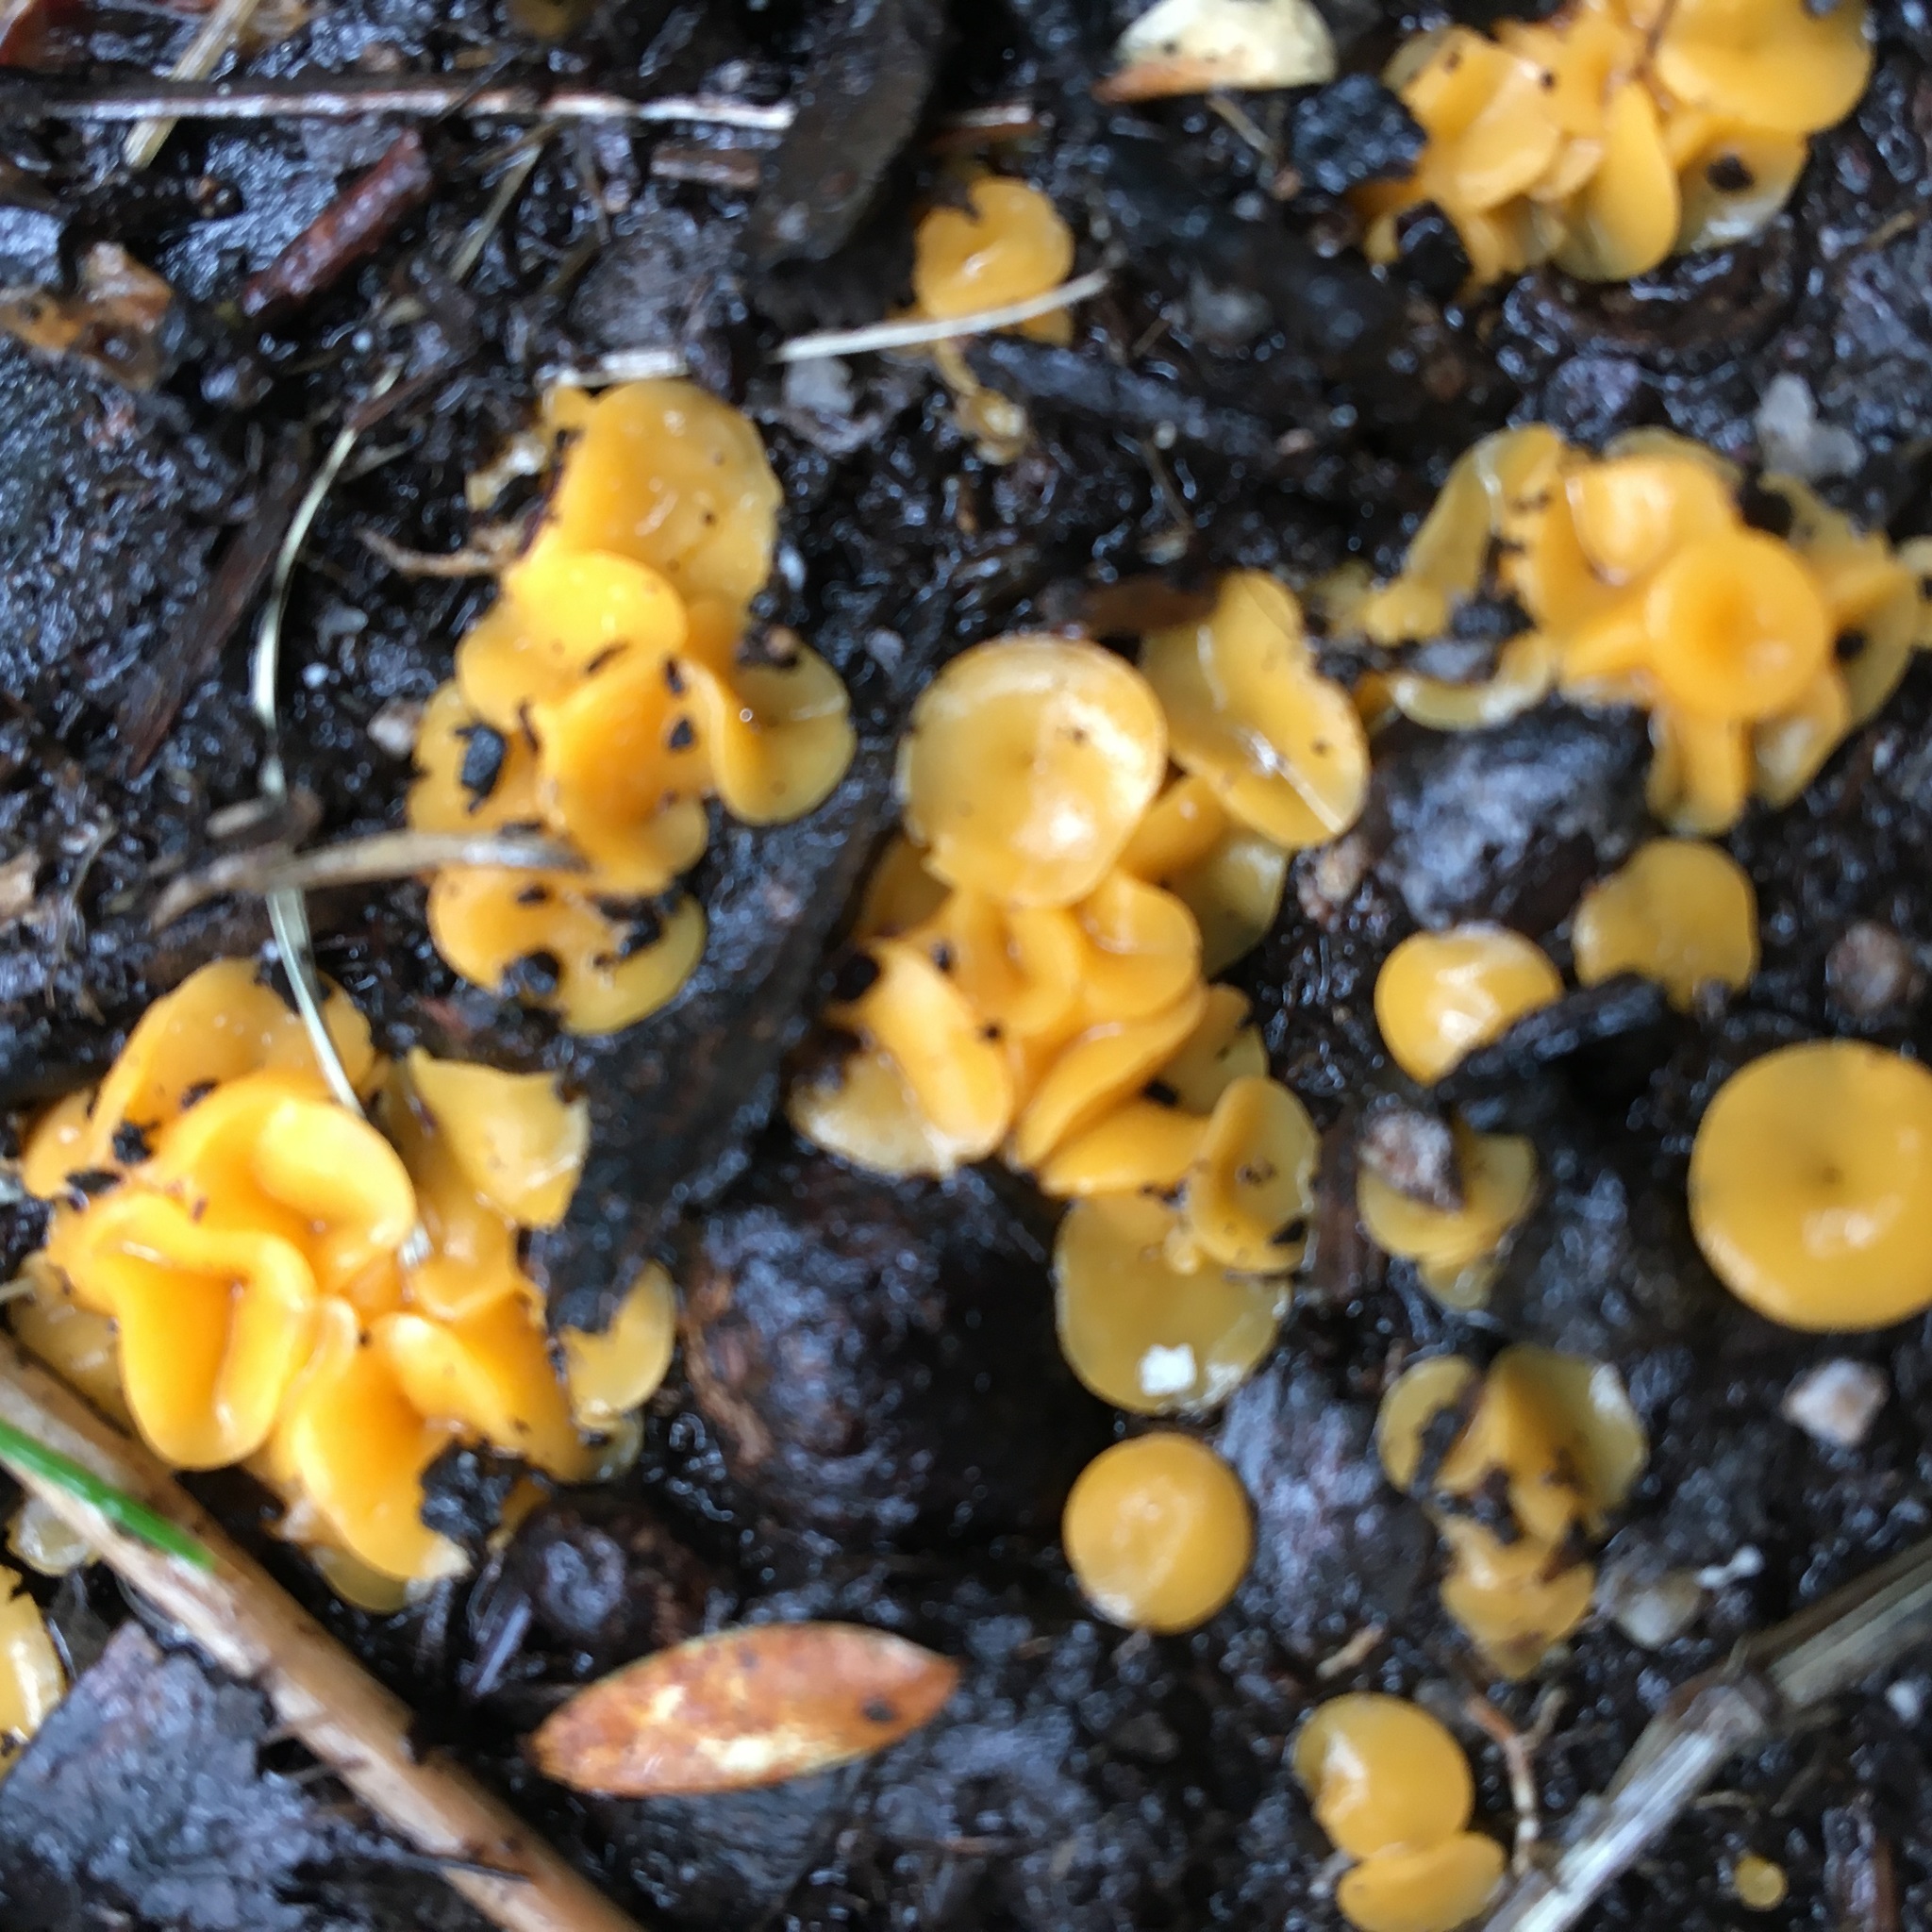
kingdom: Fungi
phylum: Ascomycota
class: Leotiomycetes
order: Helotiales
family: Helotiaceae
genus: Phaeohelotium
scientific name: Phaeohelotium baileyanum
